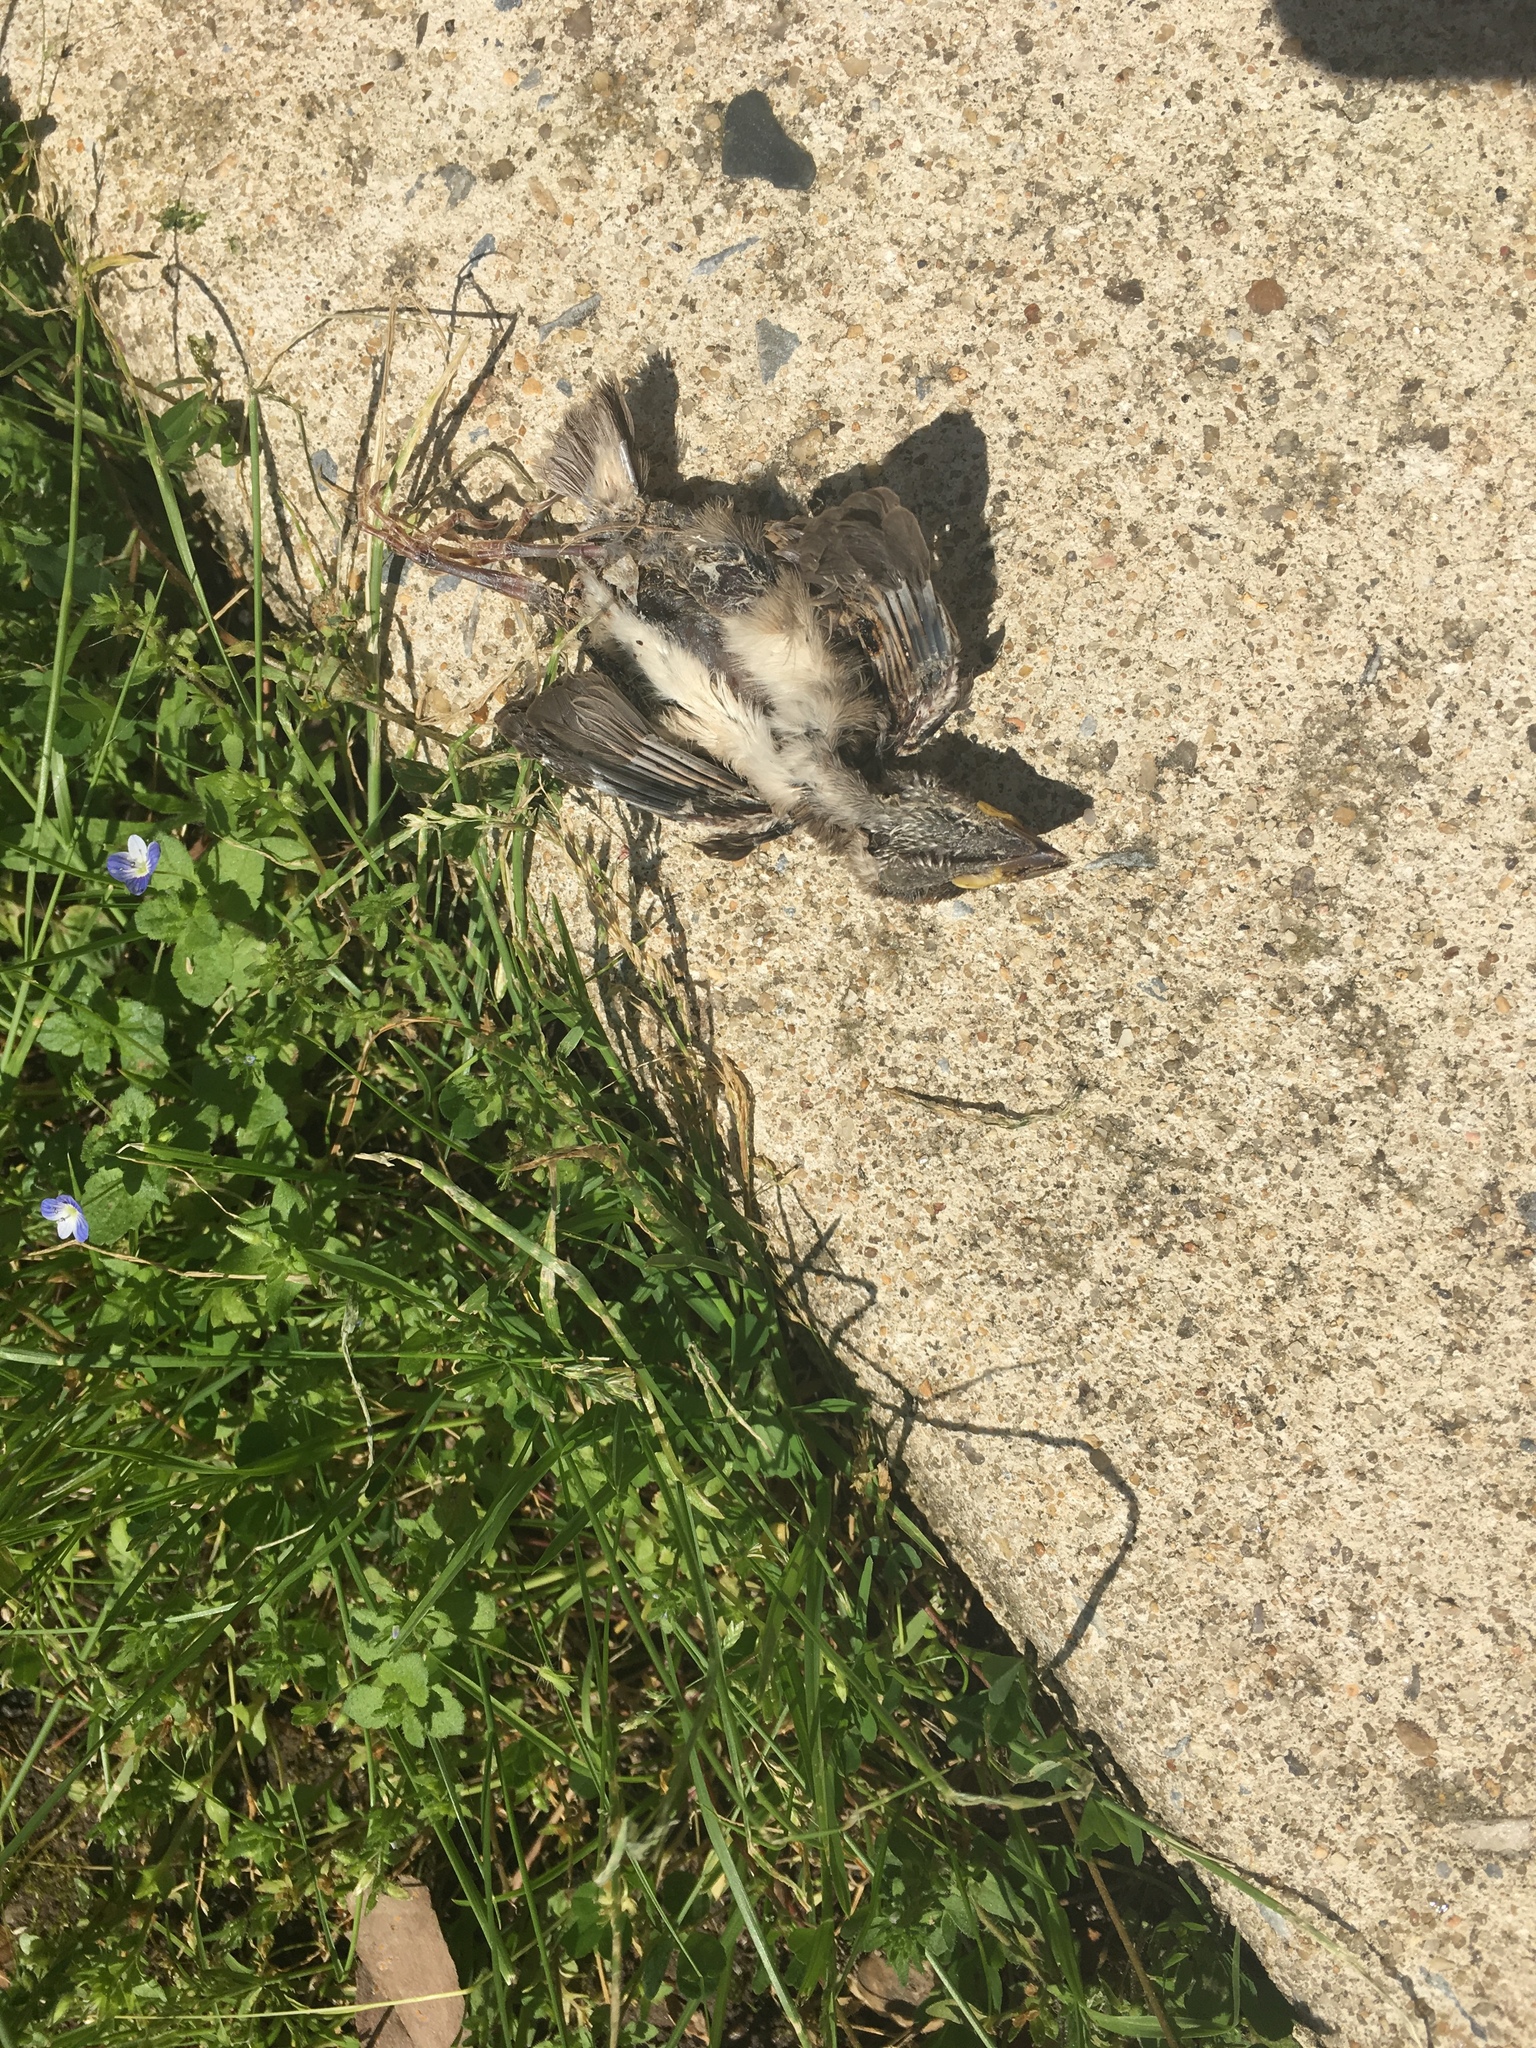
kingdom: Animalia
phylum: Chordata
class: Aves
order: Passeriformes
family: Passeridae
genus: Passer
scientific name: Passer domesticus
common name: House sparrow
